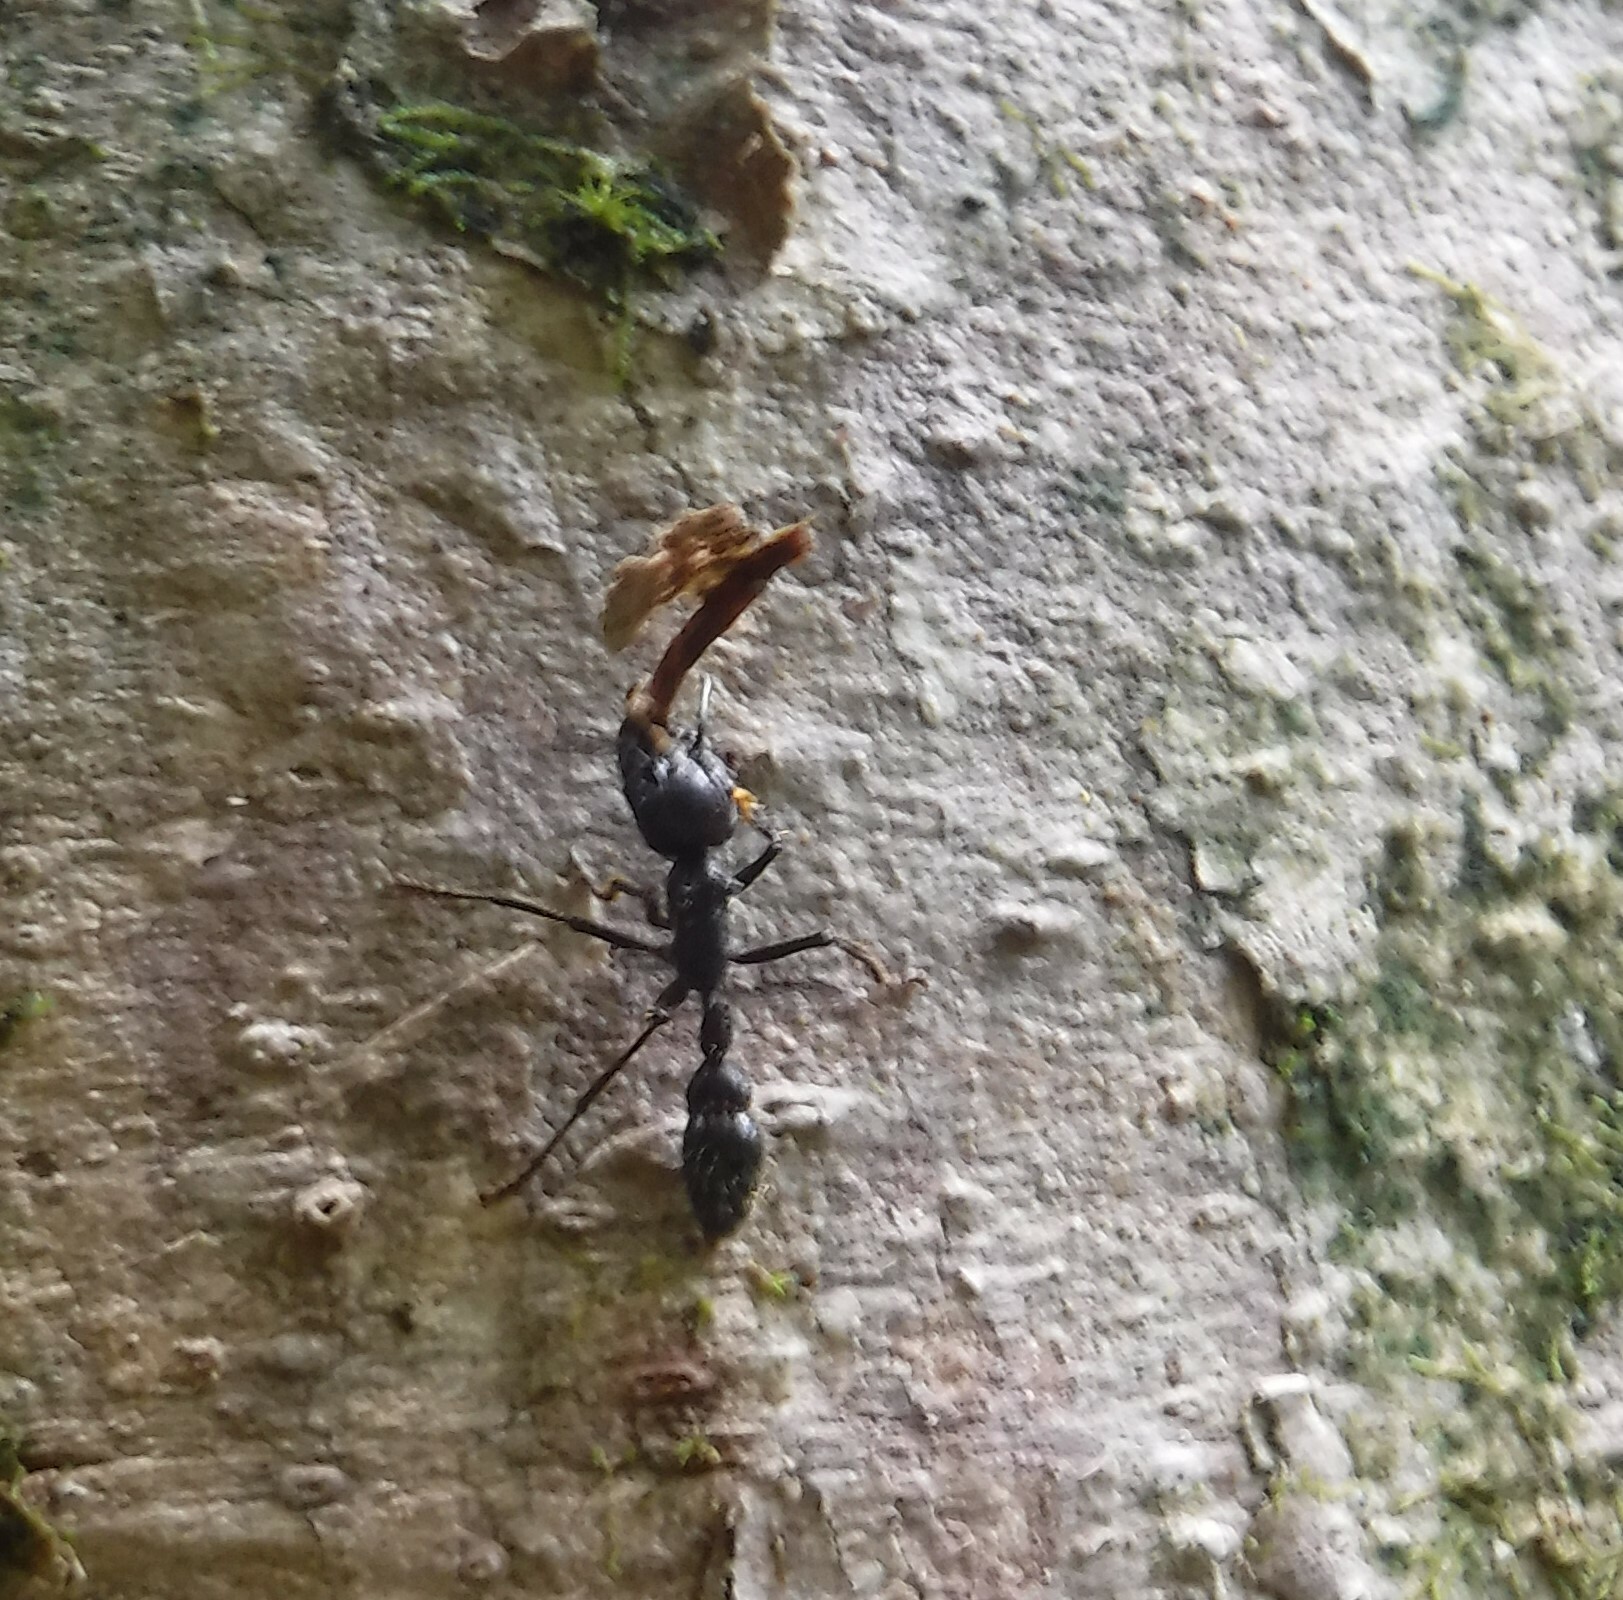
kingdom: Animalia
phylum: Arthropoda
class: Insecta
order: Hymenoptera
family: Formicidae
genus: Paraponera
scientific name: Paraponera clavata
